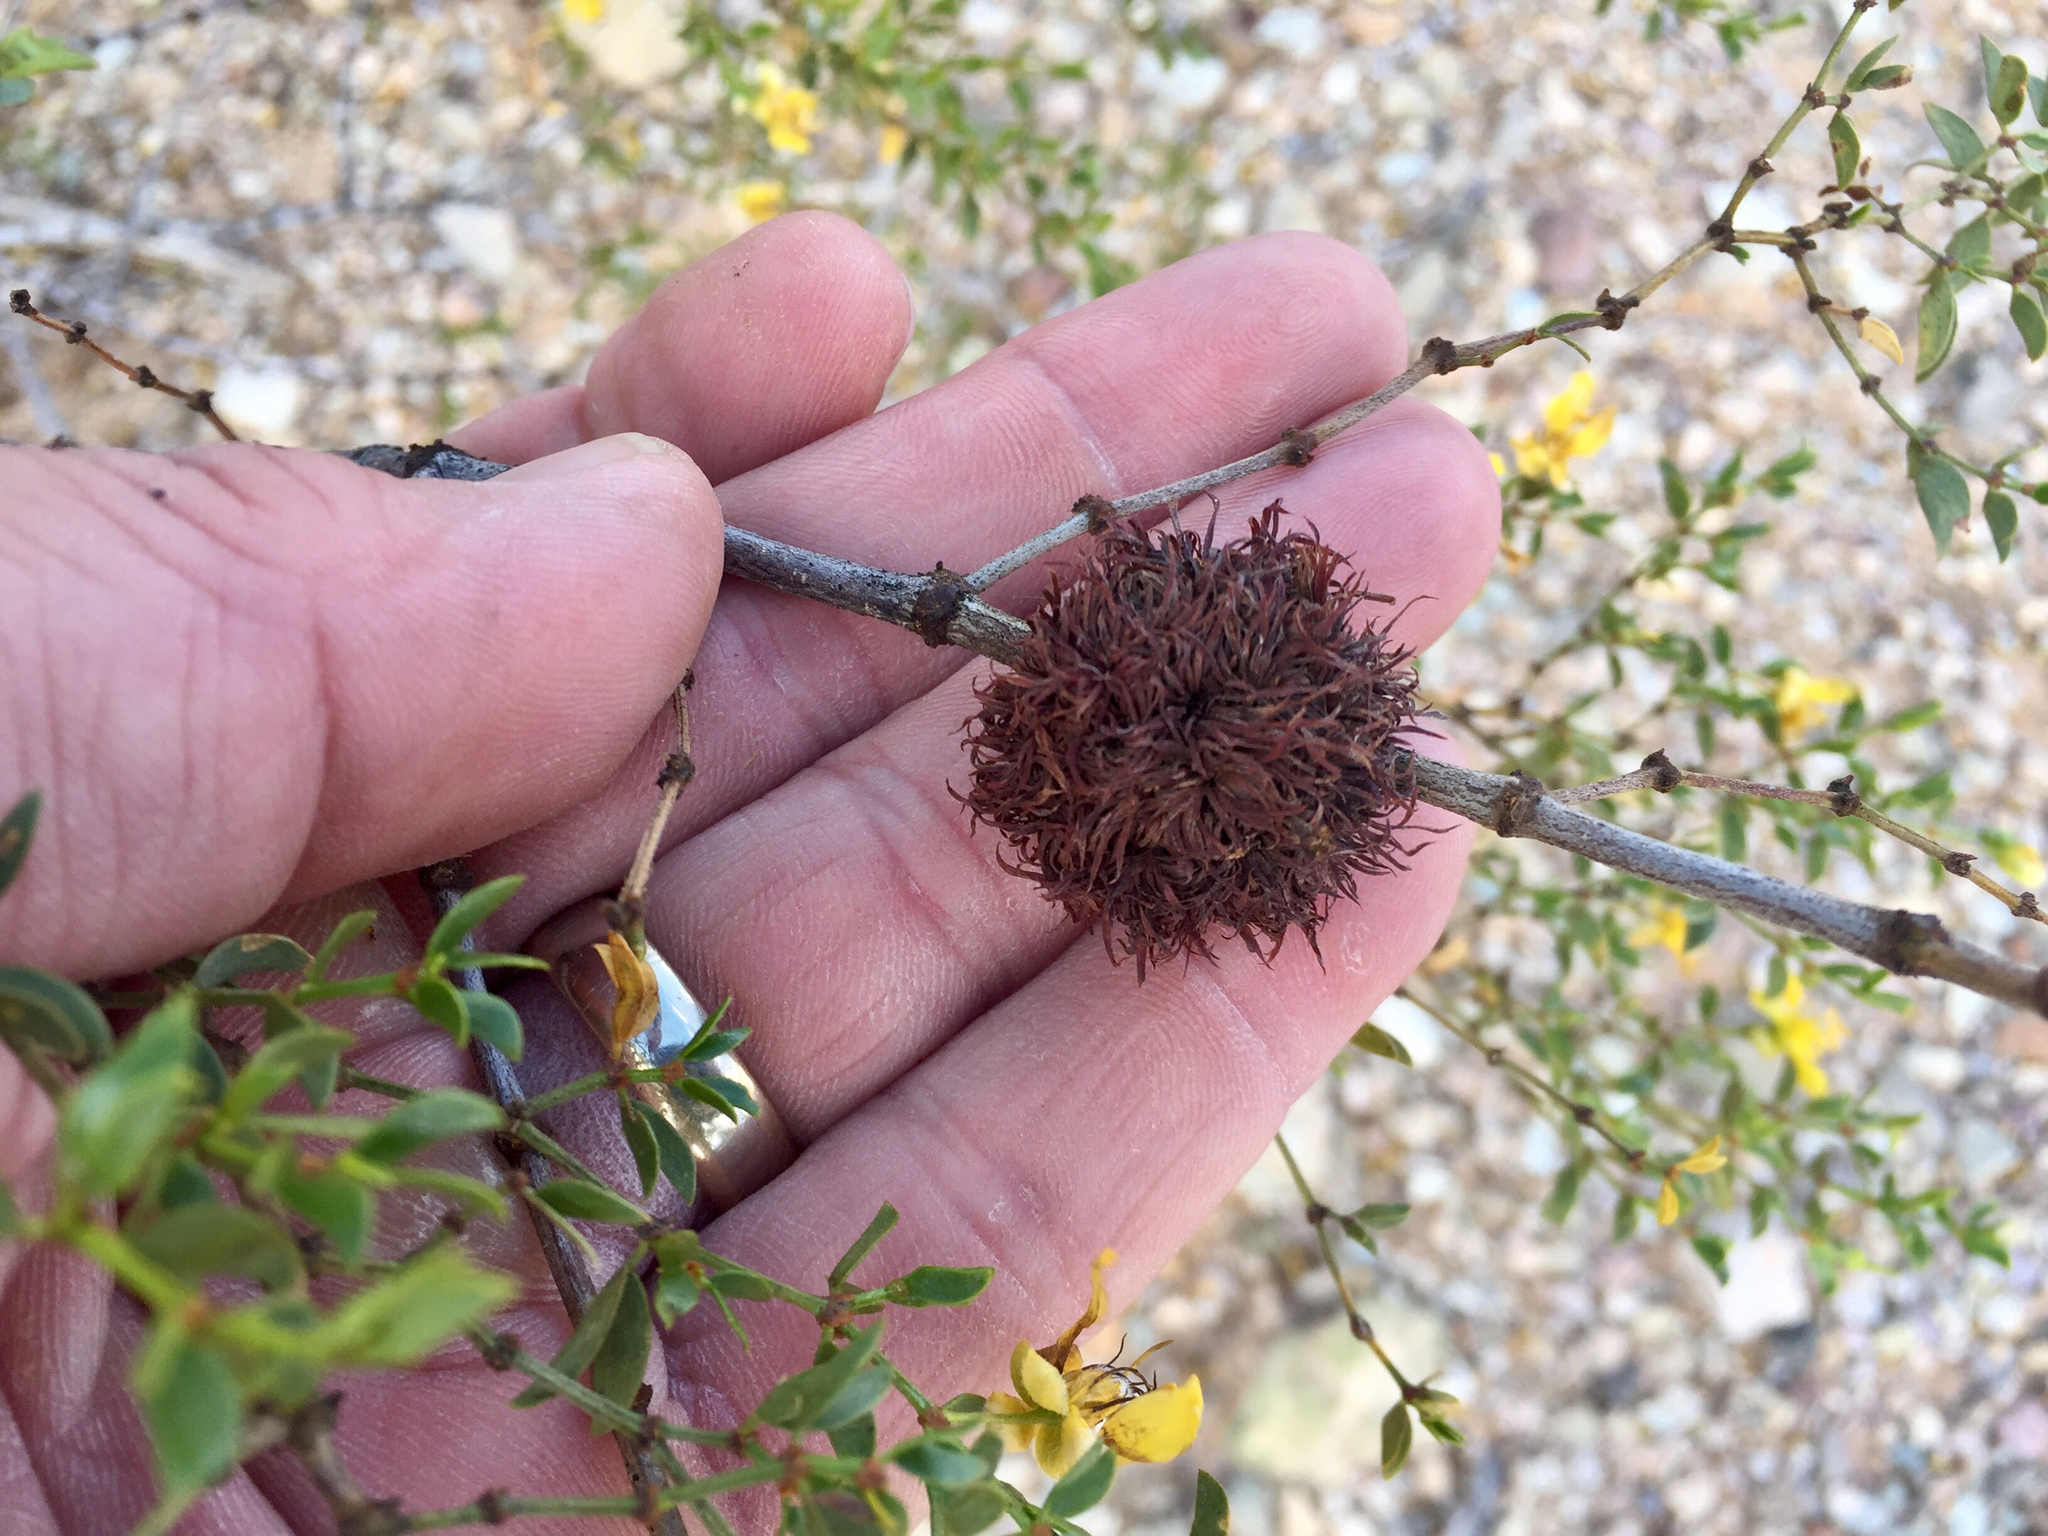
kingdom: Animalia
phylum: Arthropoda
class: Insecta
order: Diptera
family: Cecidomyiidae
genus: Asphondylia
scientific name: Asphondylia auripila
